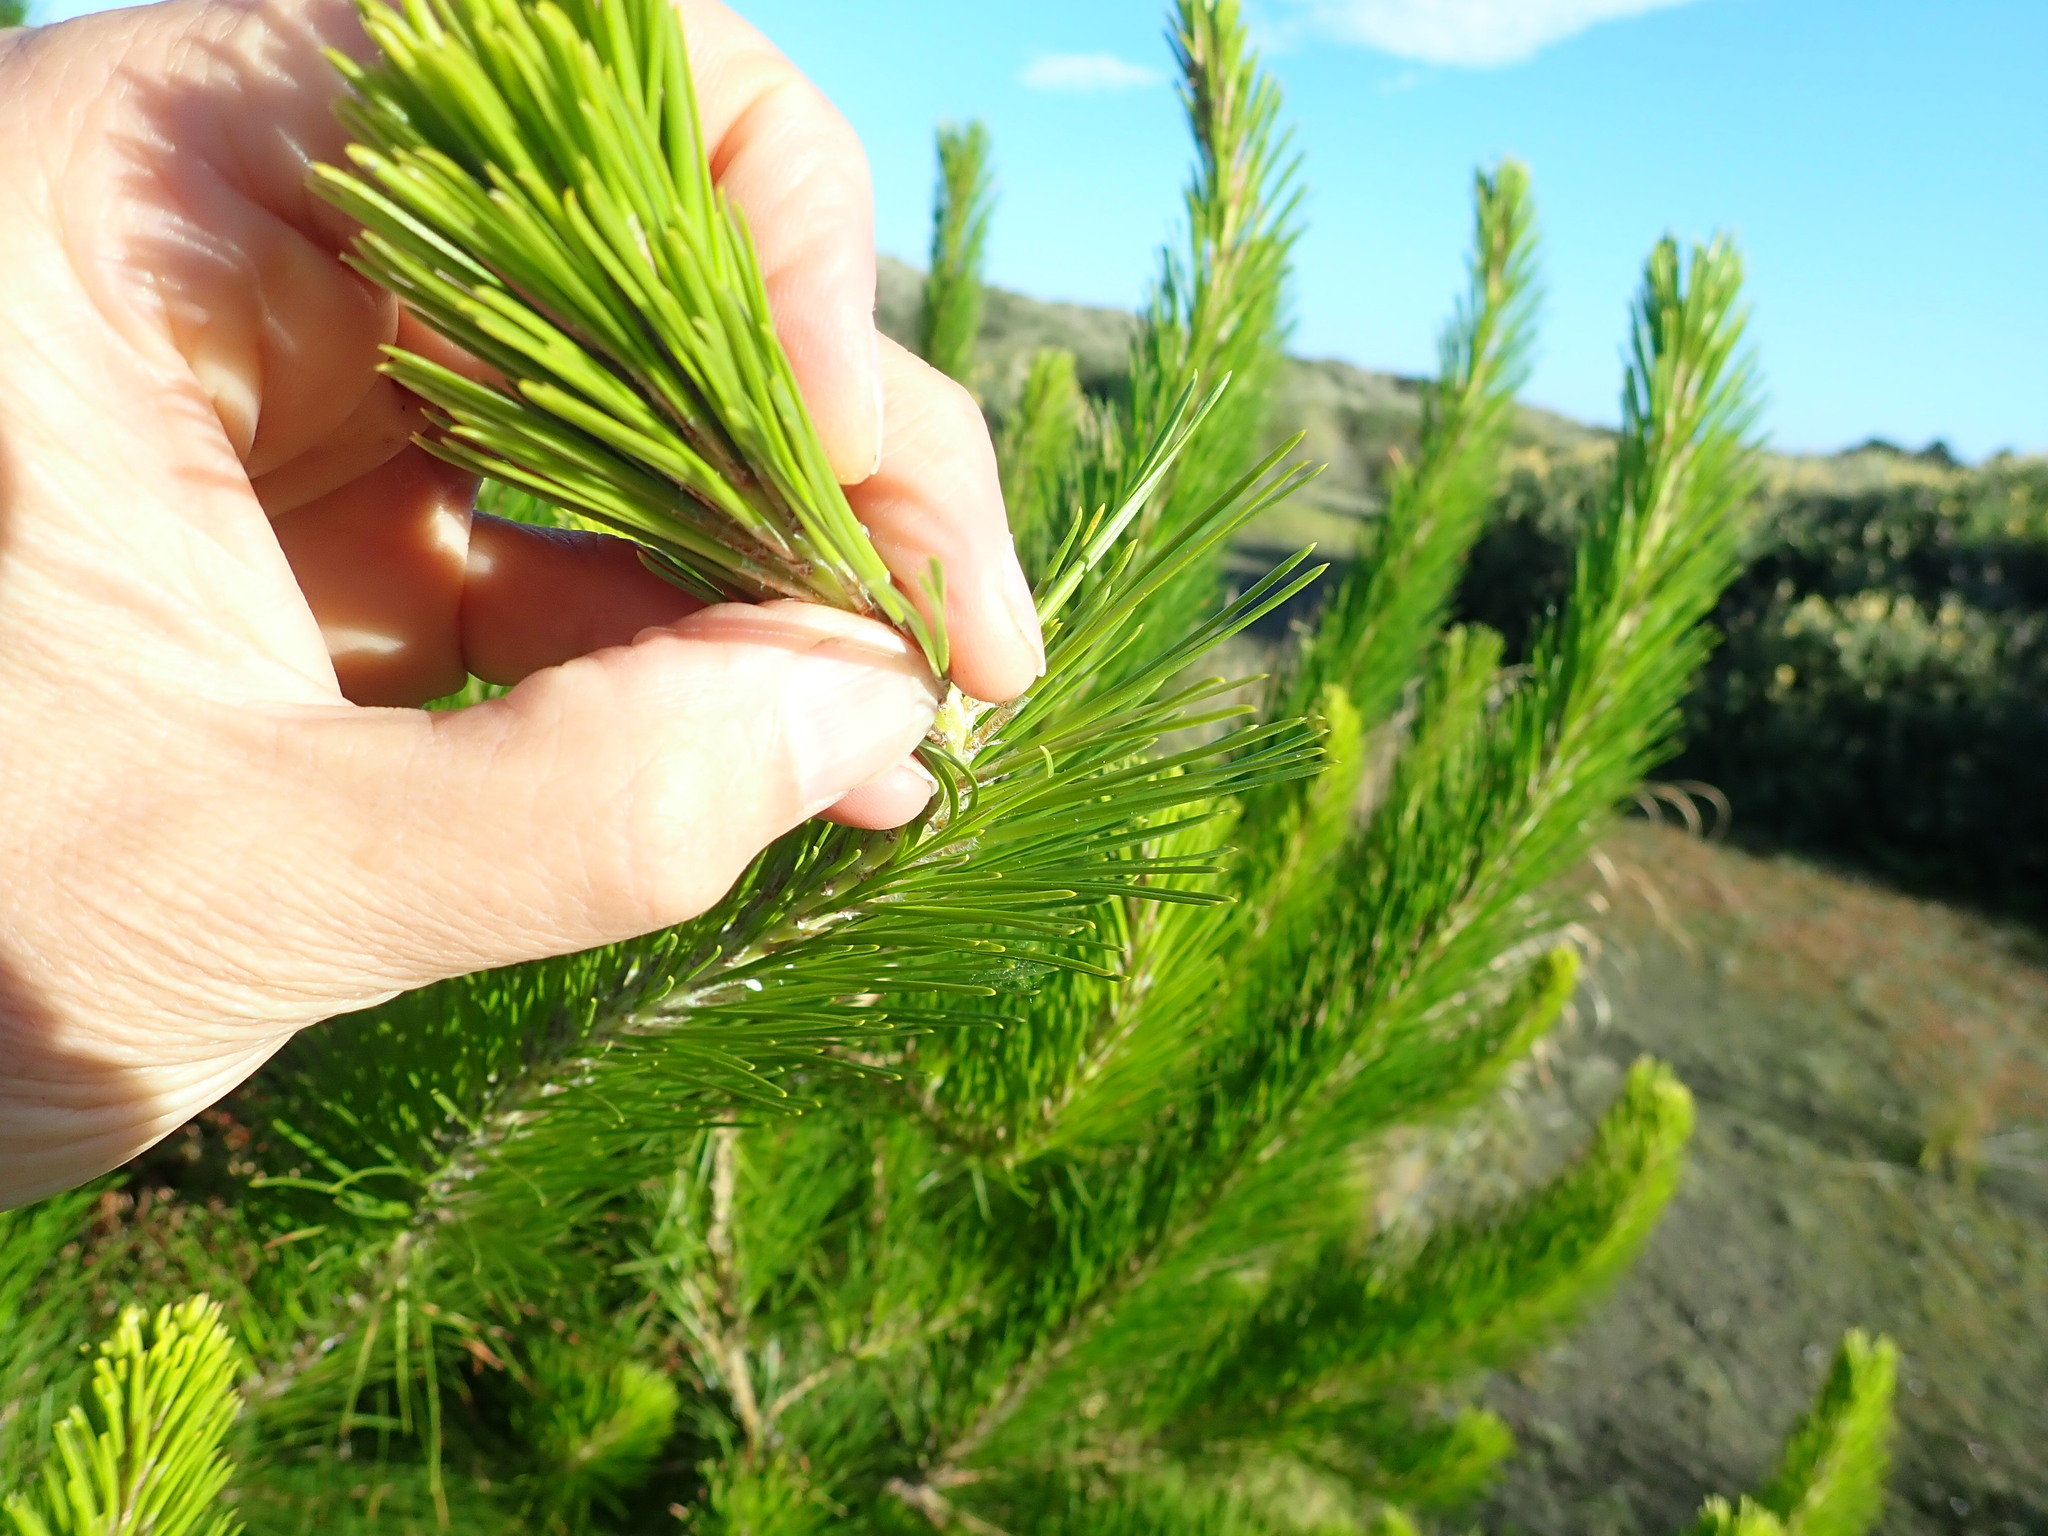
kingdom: Plantae
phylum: Tracheophyta
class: Pinopsida
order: Pinales
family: Pinaceae
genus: Pinus
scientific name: Pinus radiata
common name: Monterey pine
